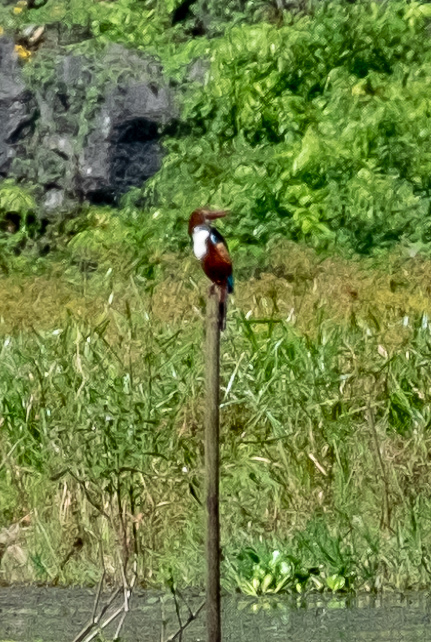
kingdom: Animalia
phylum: Chordata
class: Aves
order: Coraciiformes
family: Alcedinidae
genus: Halcyon
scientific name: Halcyon smyrnensis
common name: White-throated kingfisher
